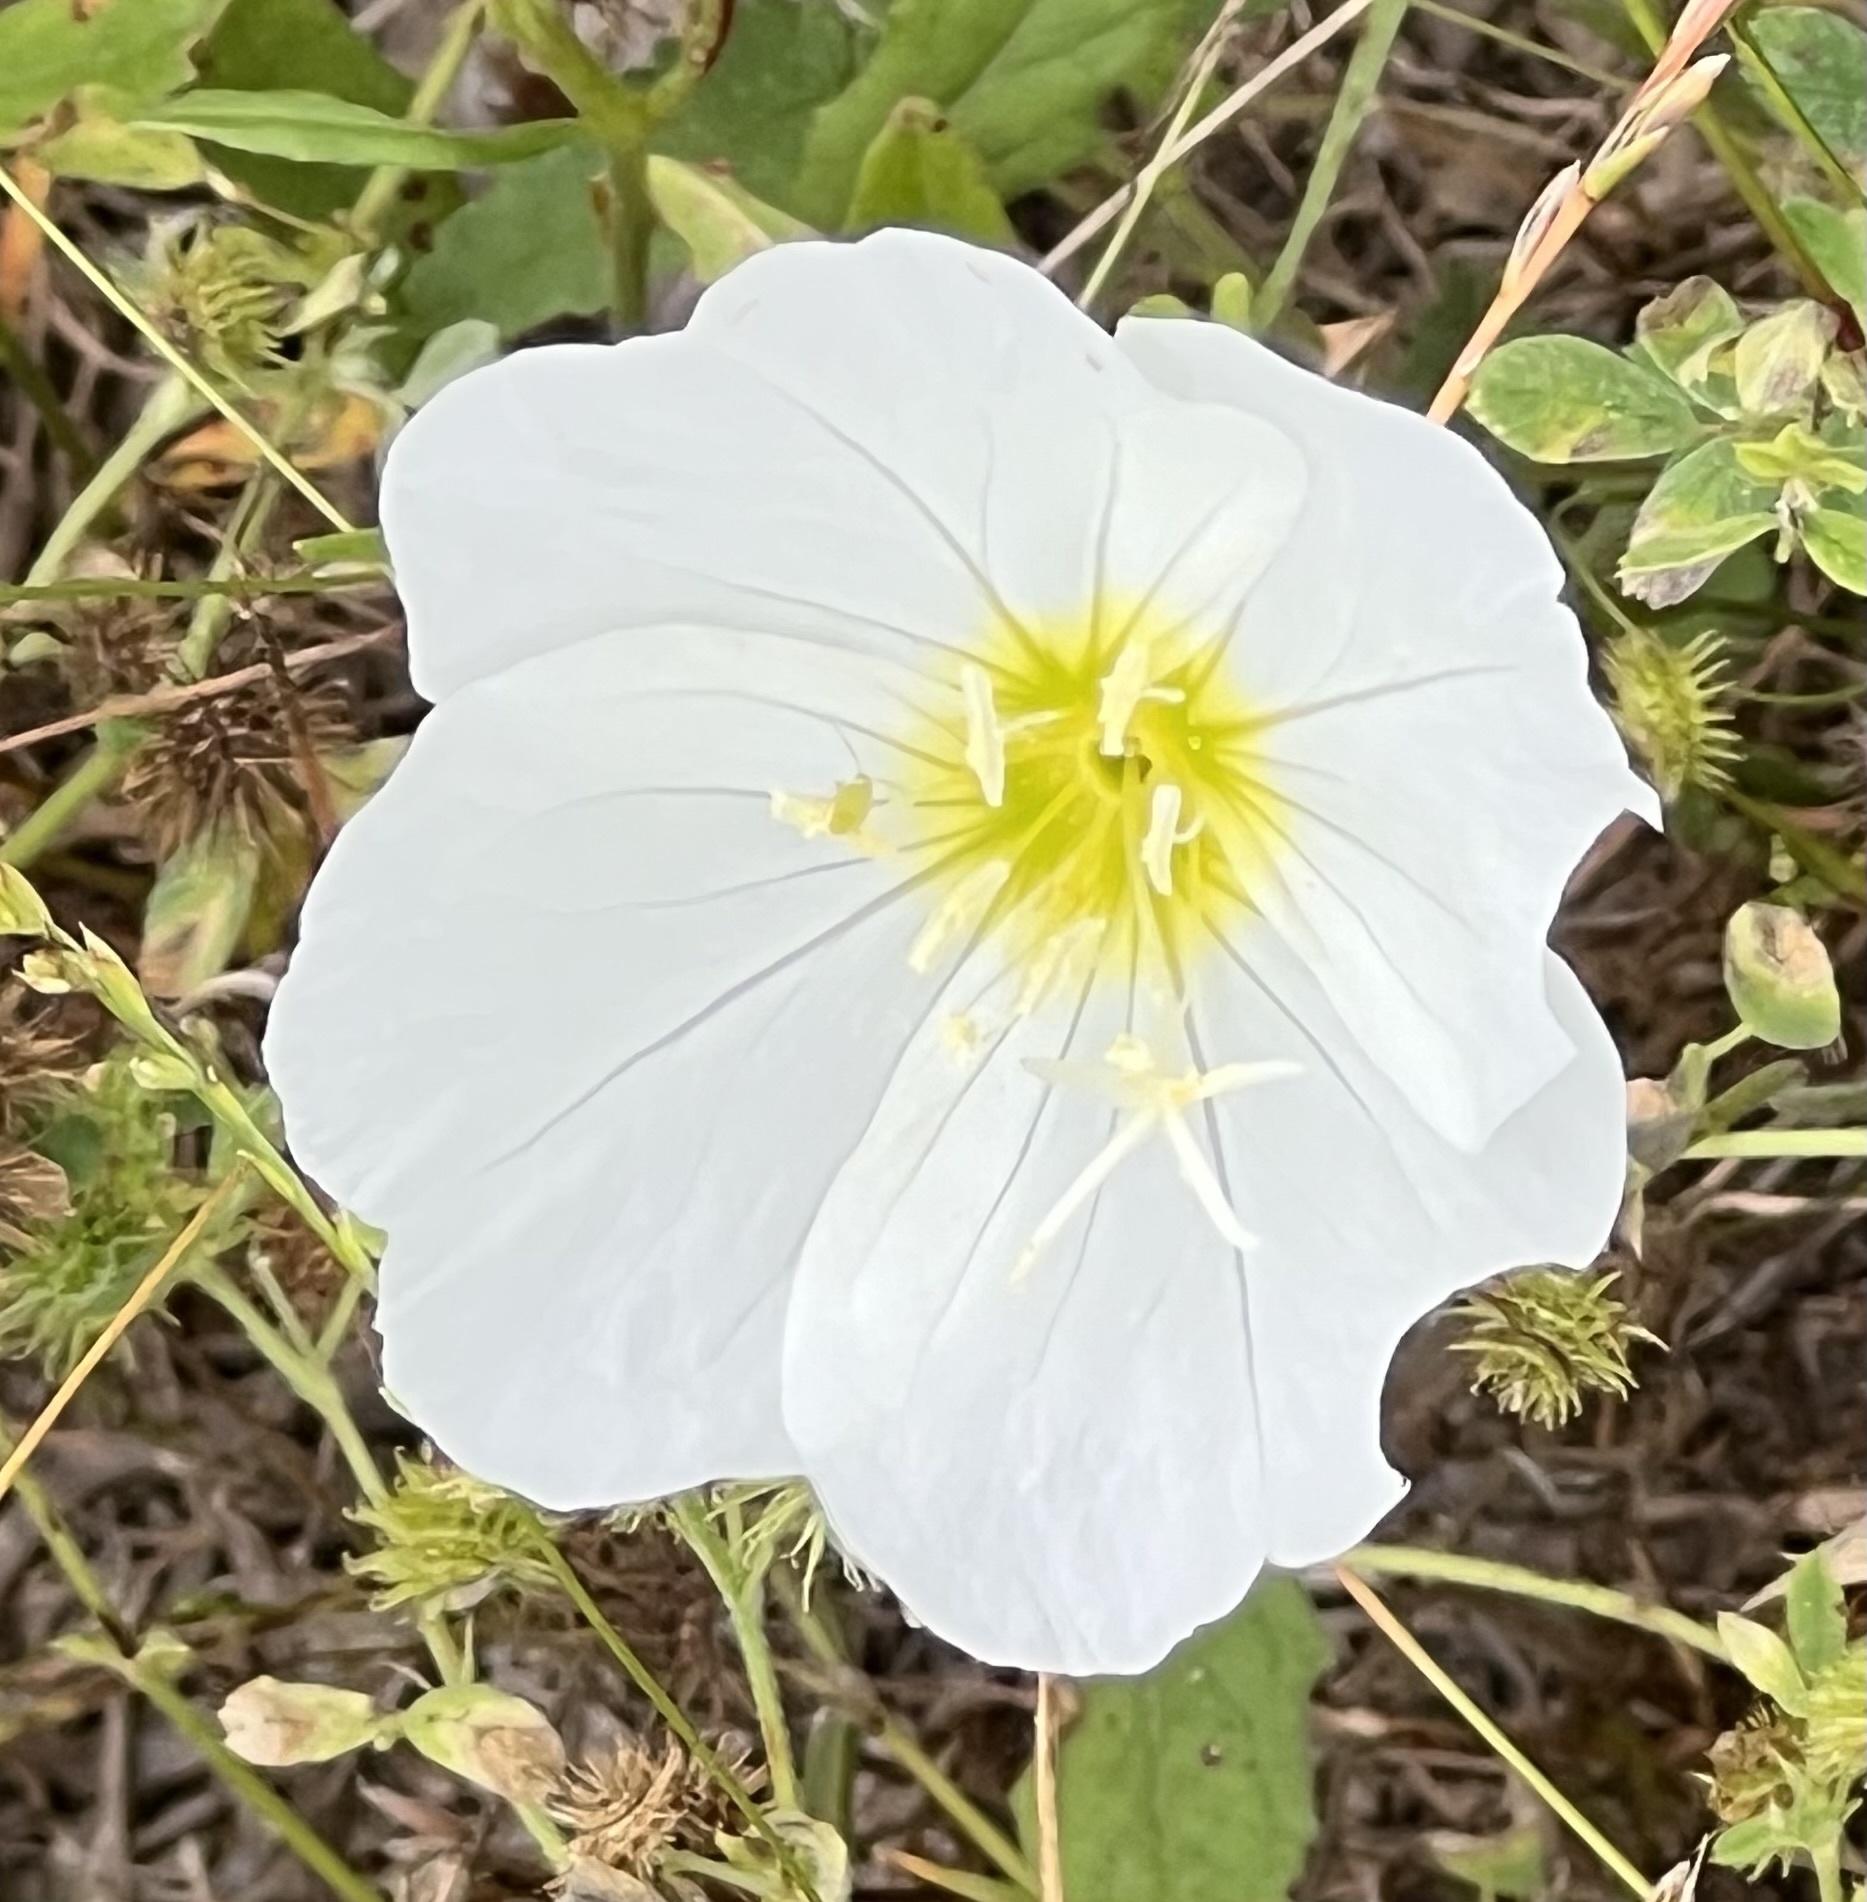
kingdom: Plantae
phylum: Tracheophyta
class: Magnoliopsida
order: Myrtales
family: Onagraceae
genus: Oenothera
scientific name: Oenothera speciosa
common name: White evening-primrose
